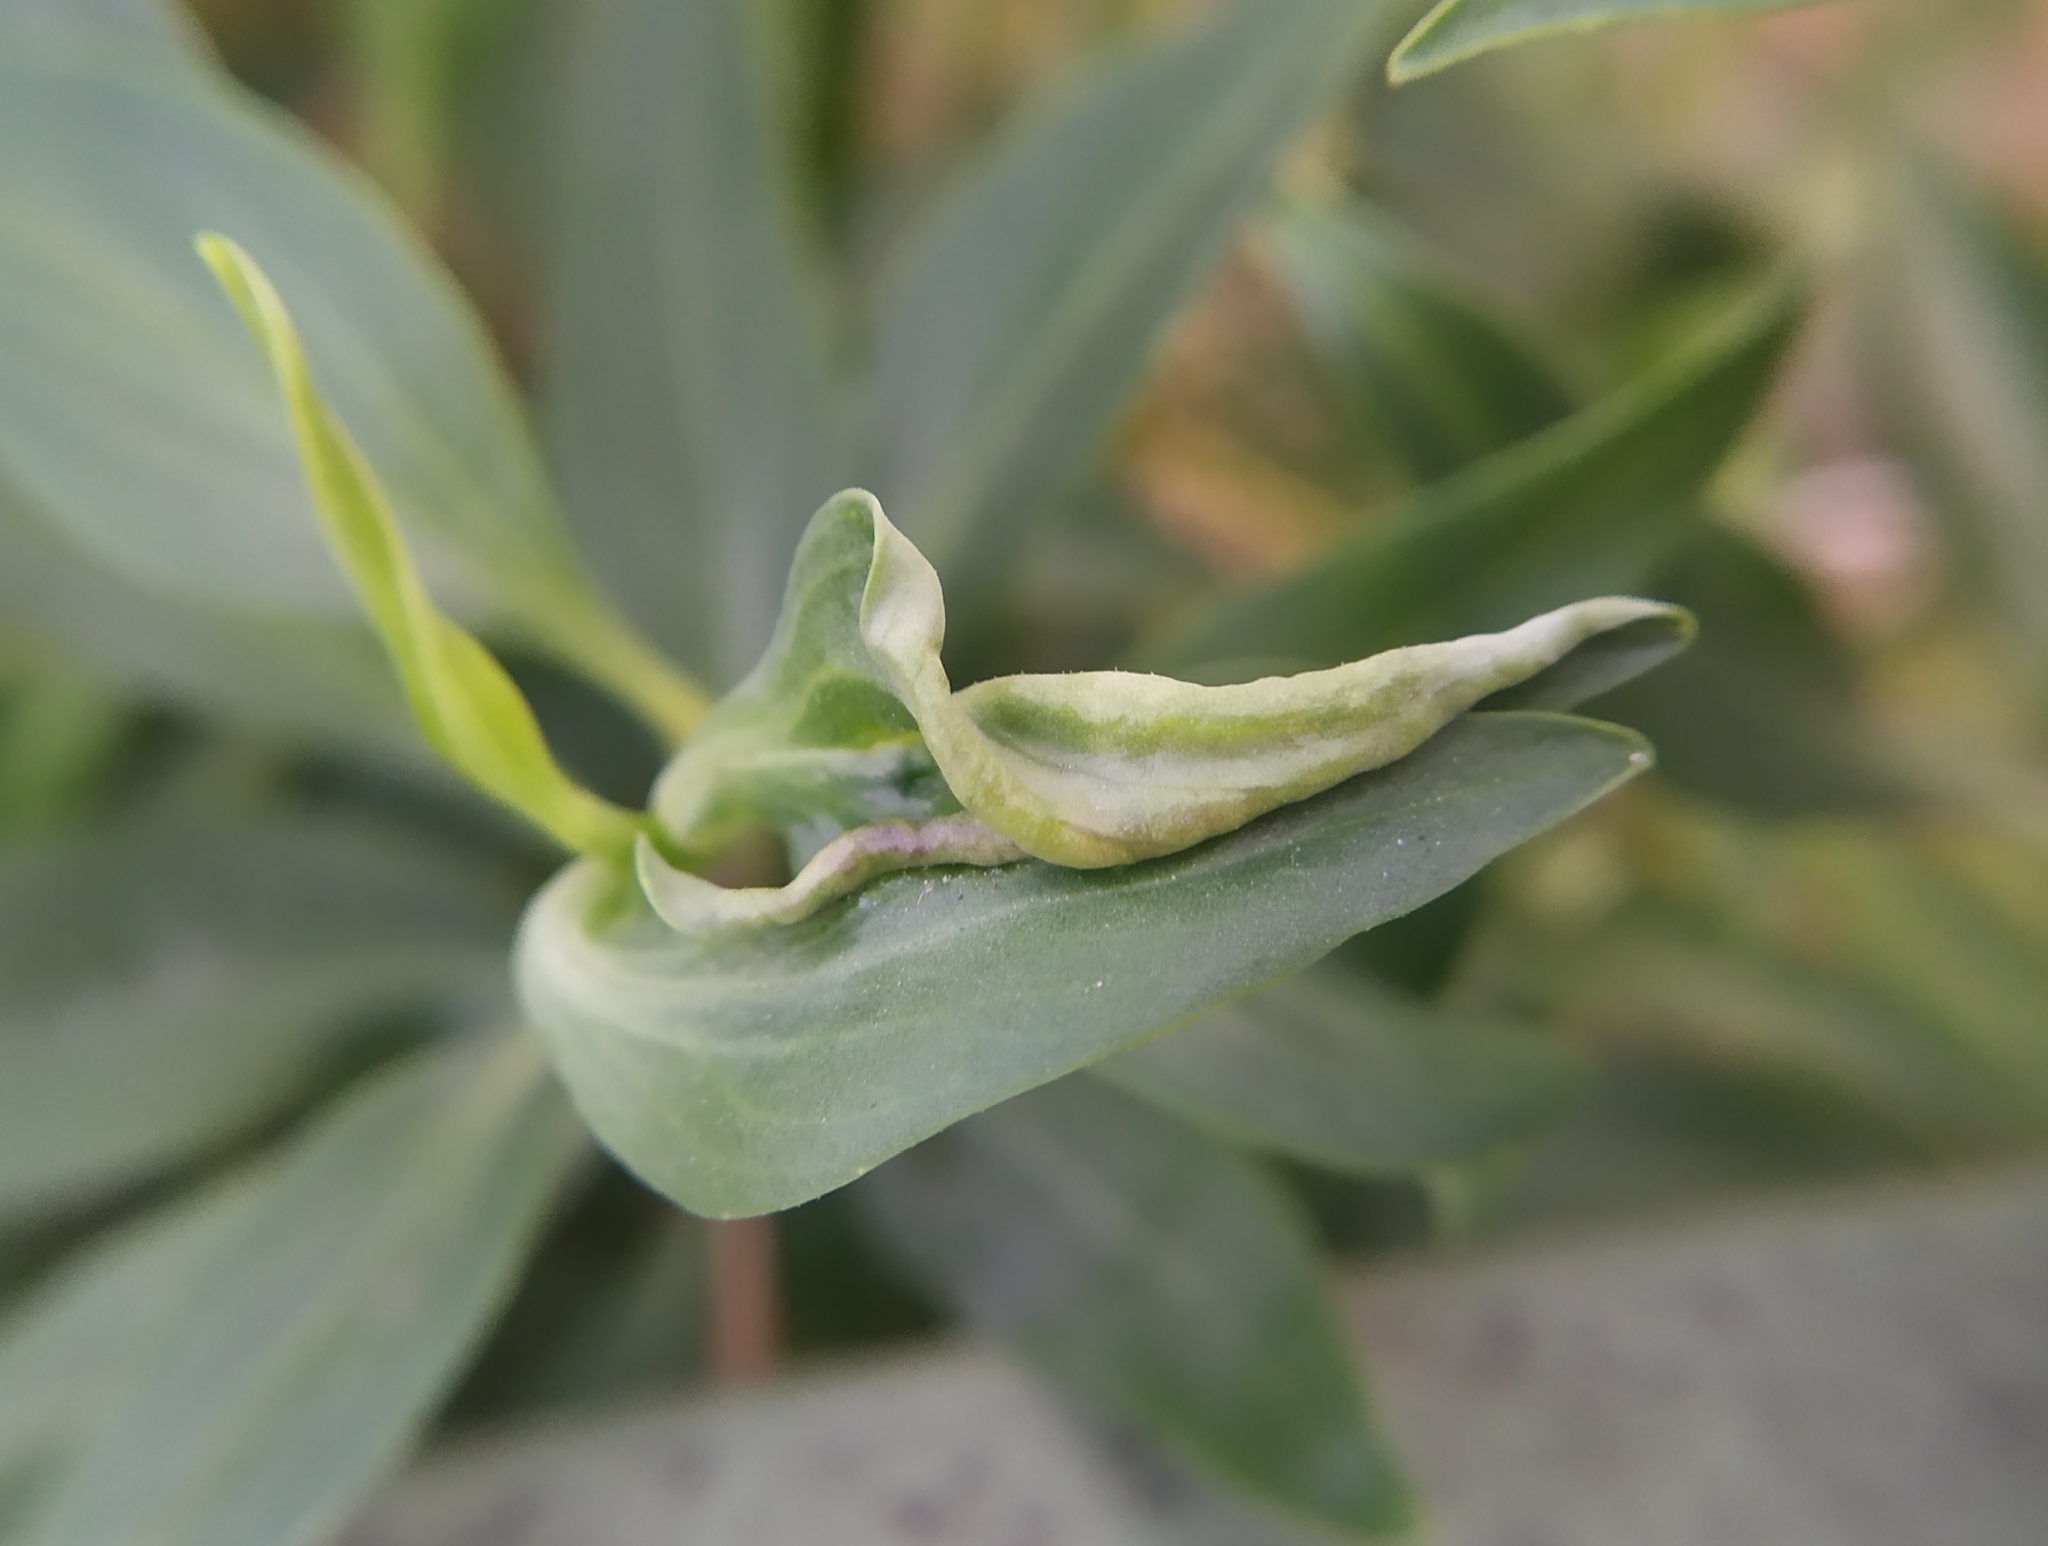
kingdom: Animalia
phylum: Arthropoda
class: Insecta
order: Hemiptera
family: Triozidae
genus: Trioza
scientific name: Trioza centranthi
